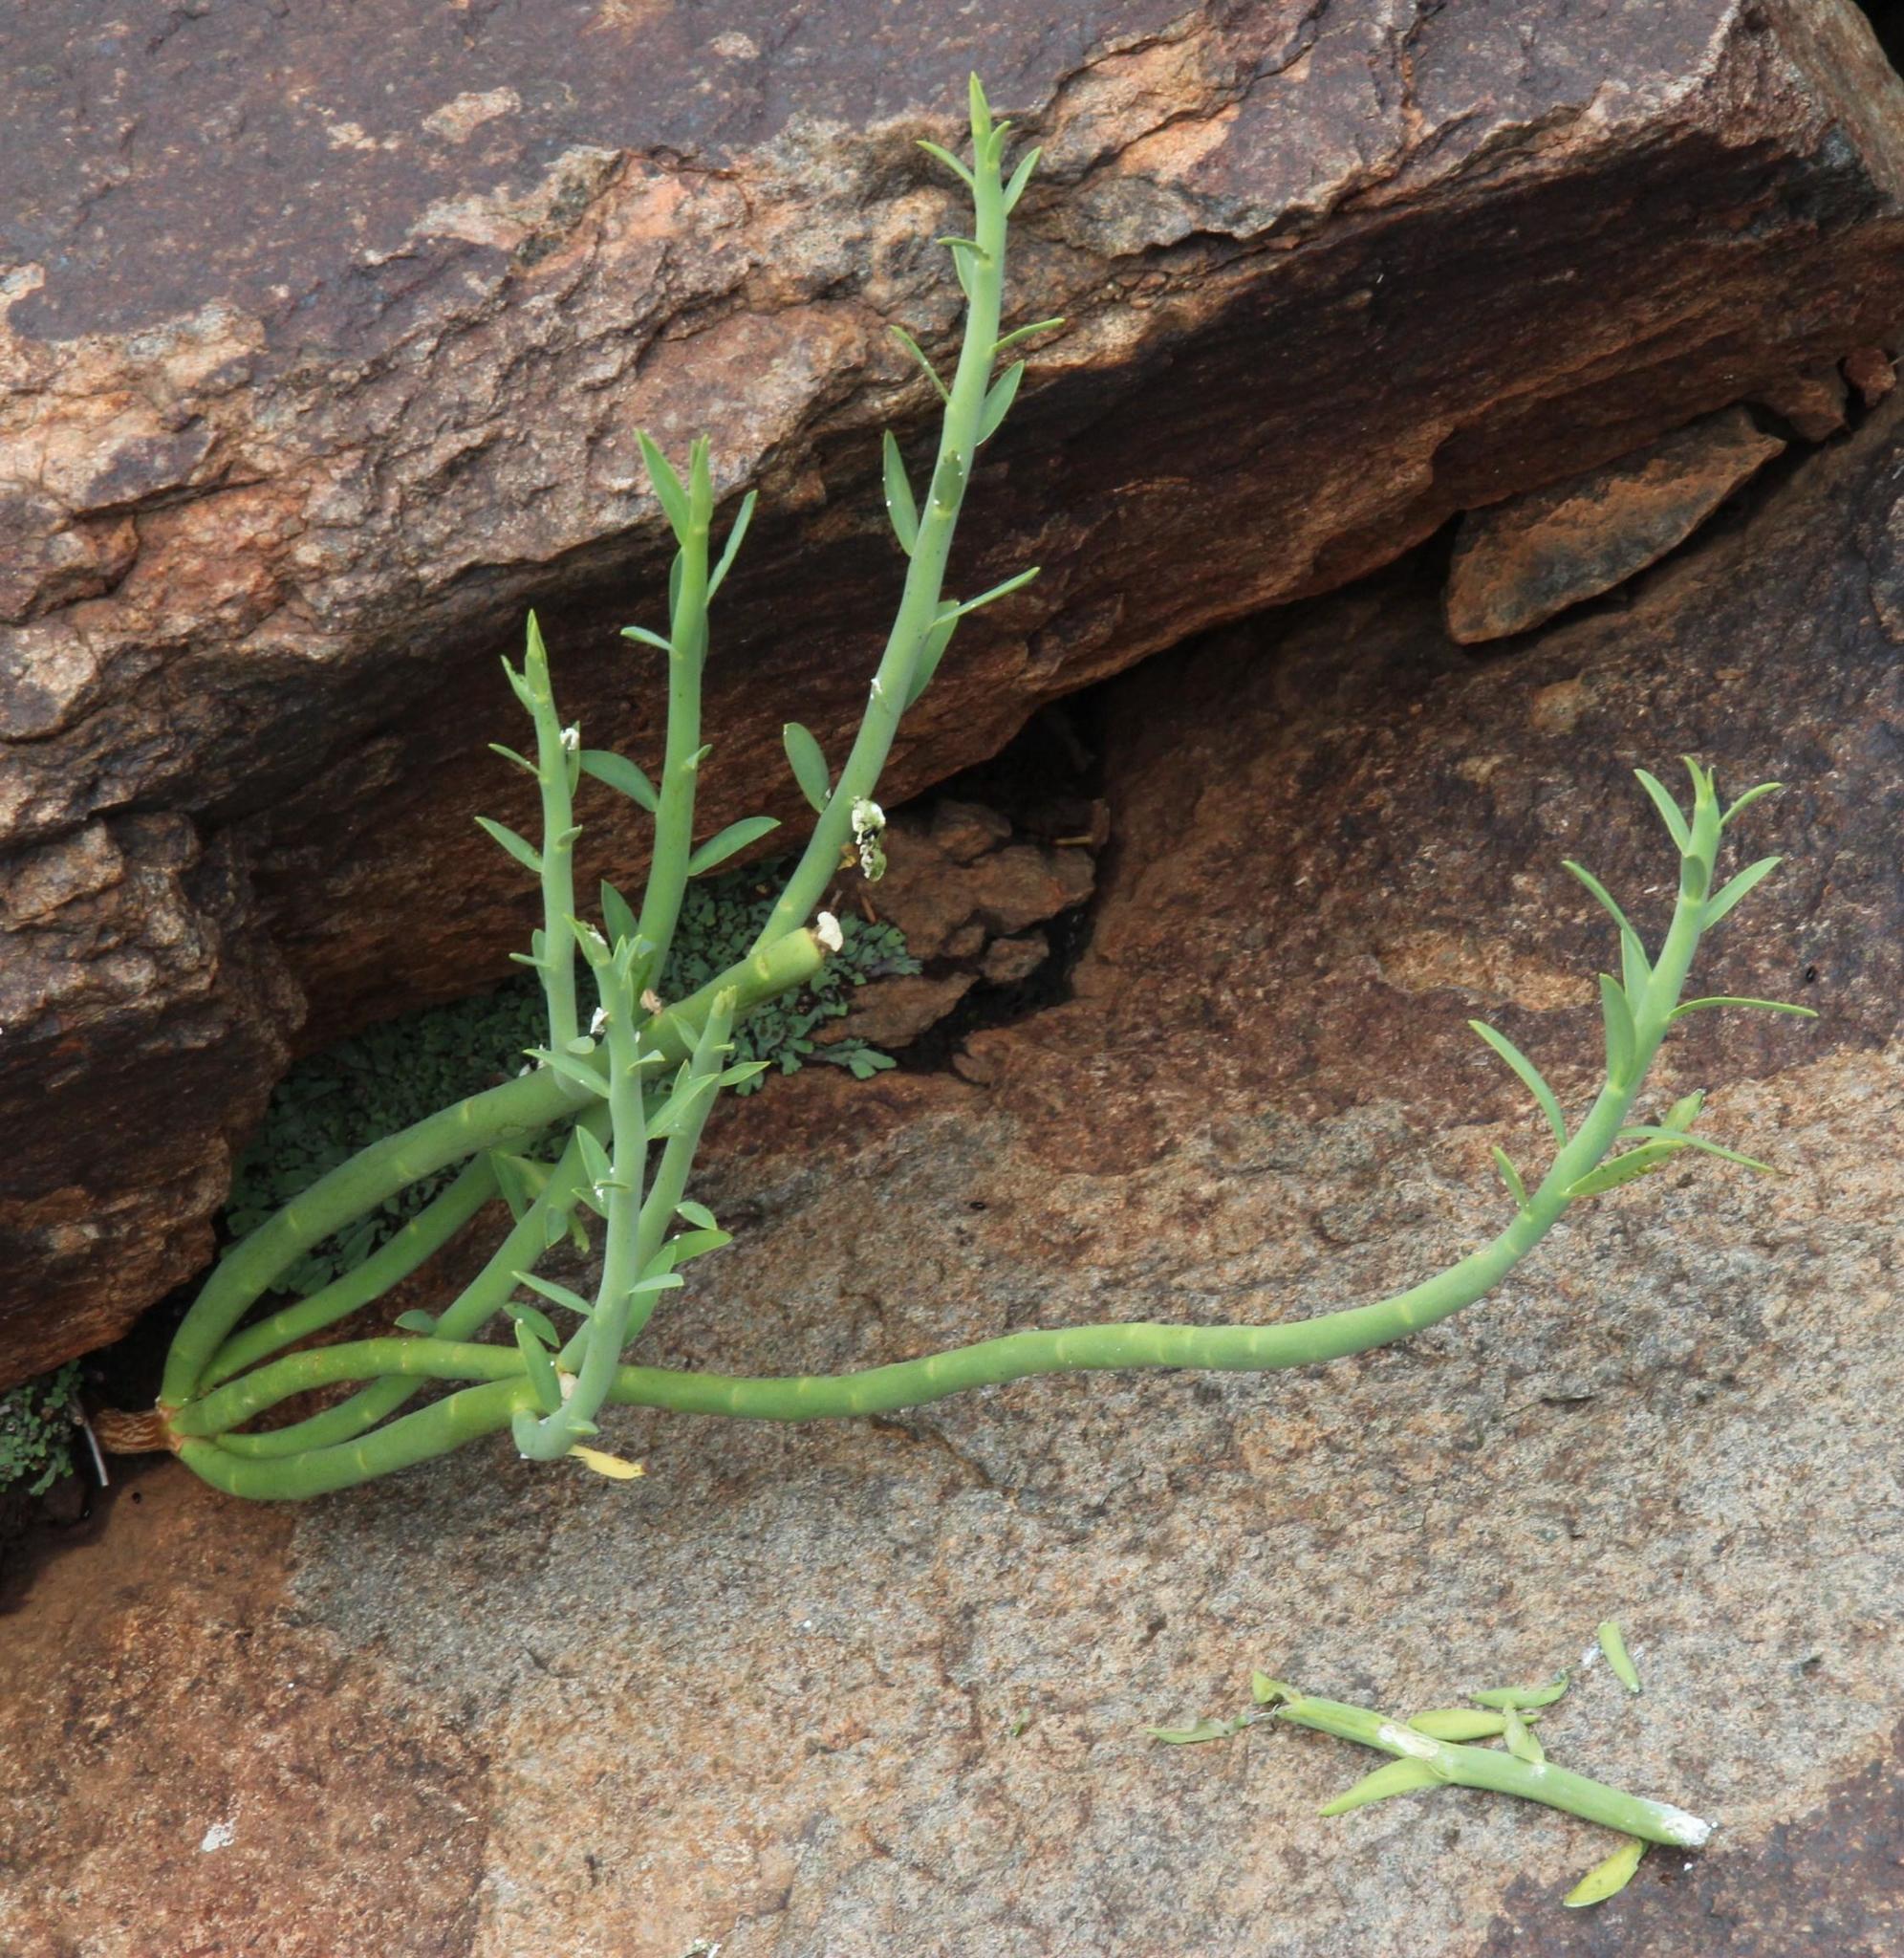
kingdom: Plantae
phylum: Tracheophyta
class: Magnoliopsida
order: Malpighiales
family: Euphorbiaceae
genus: Euphorbia
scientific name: Euphorbia mauritanica
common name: Jackal's-food
